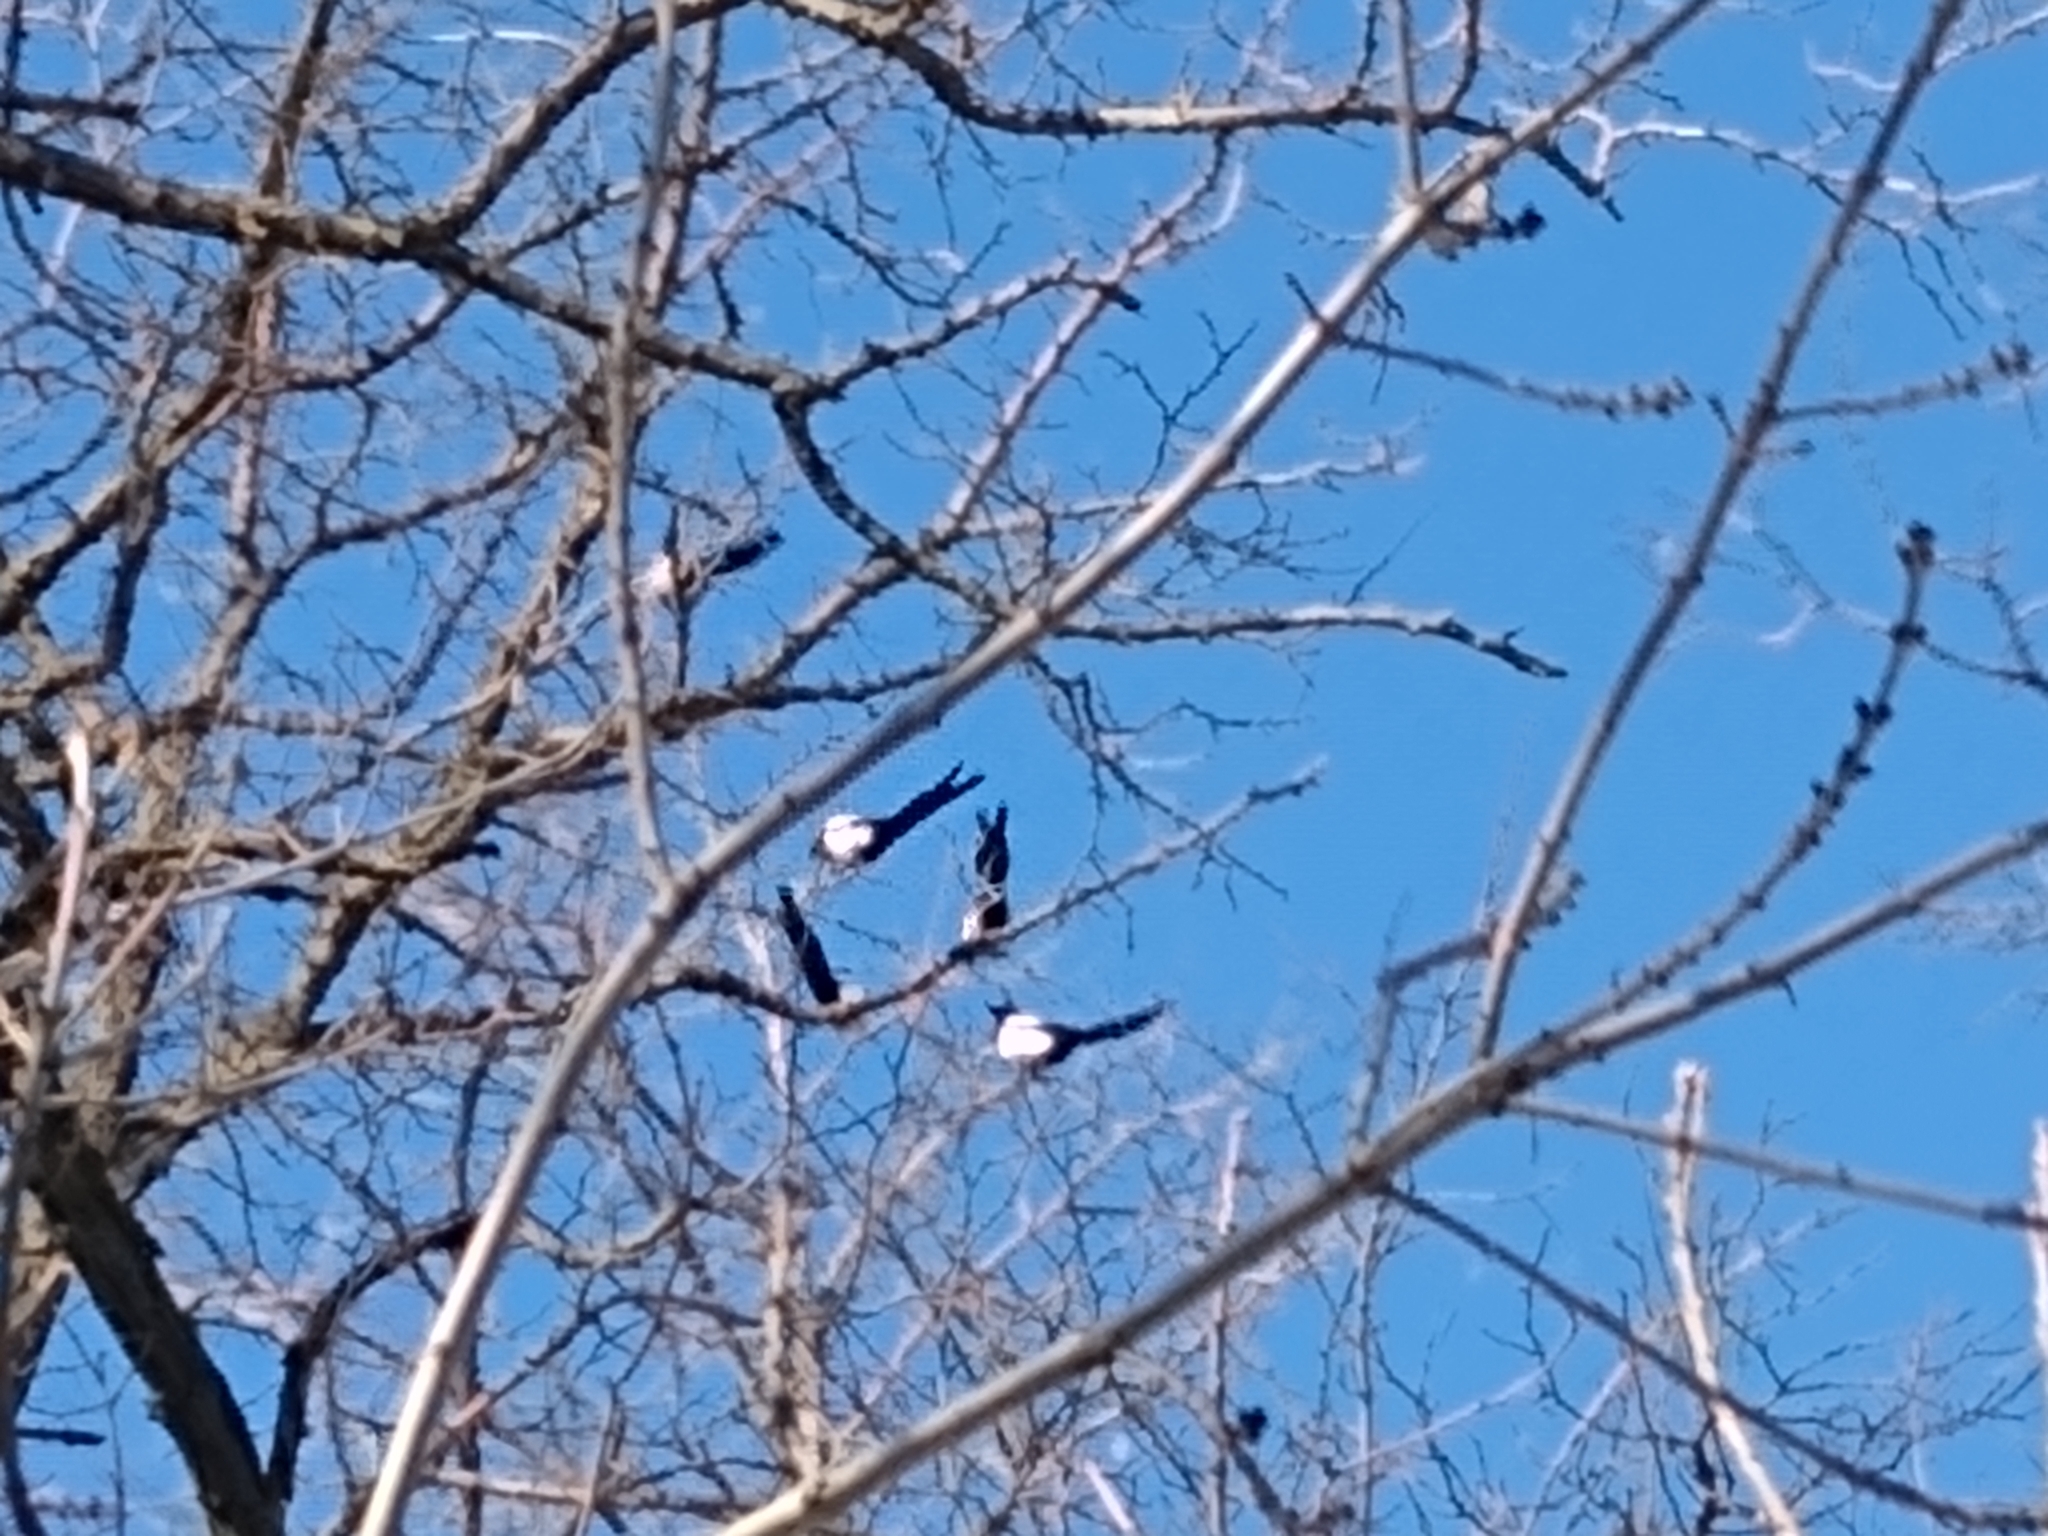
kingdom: Animalia
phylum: Chordata
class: Aves
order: Passeriformes
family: Corvidae
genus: Pica
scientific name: Pica pica
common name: Eurasian magpie
